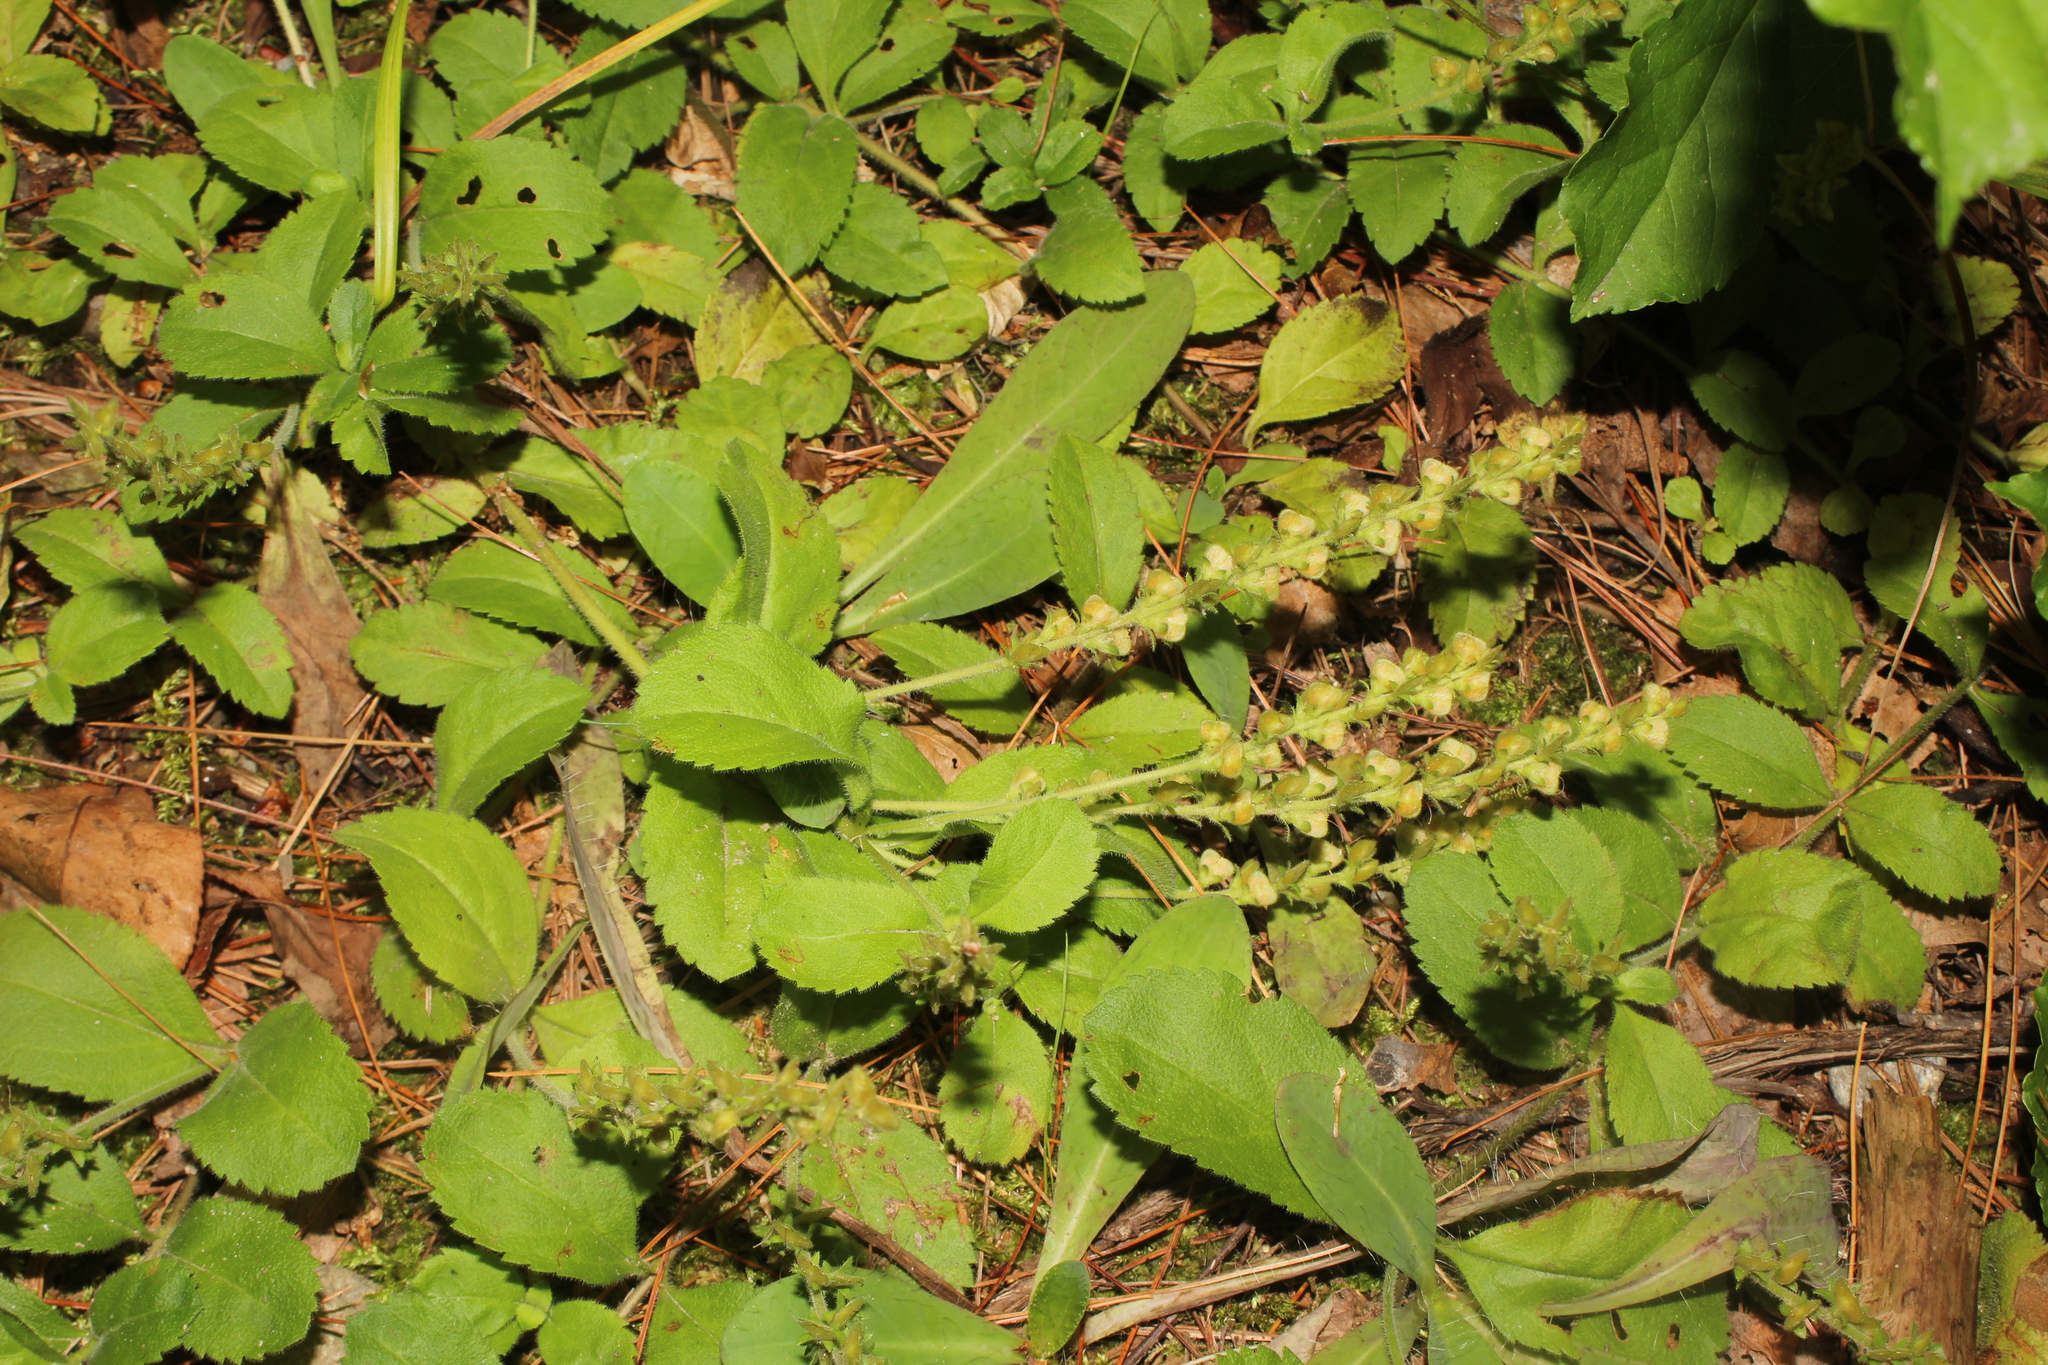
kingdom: Plantae
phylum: Tracheophyta
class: Magnoliopsida
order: Lamiales
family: Plantaginaceae
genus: Veronica
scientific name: Veronica officinalis
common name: Common speedwell
